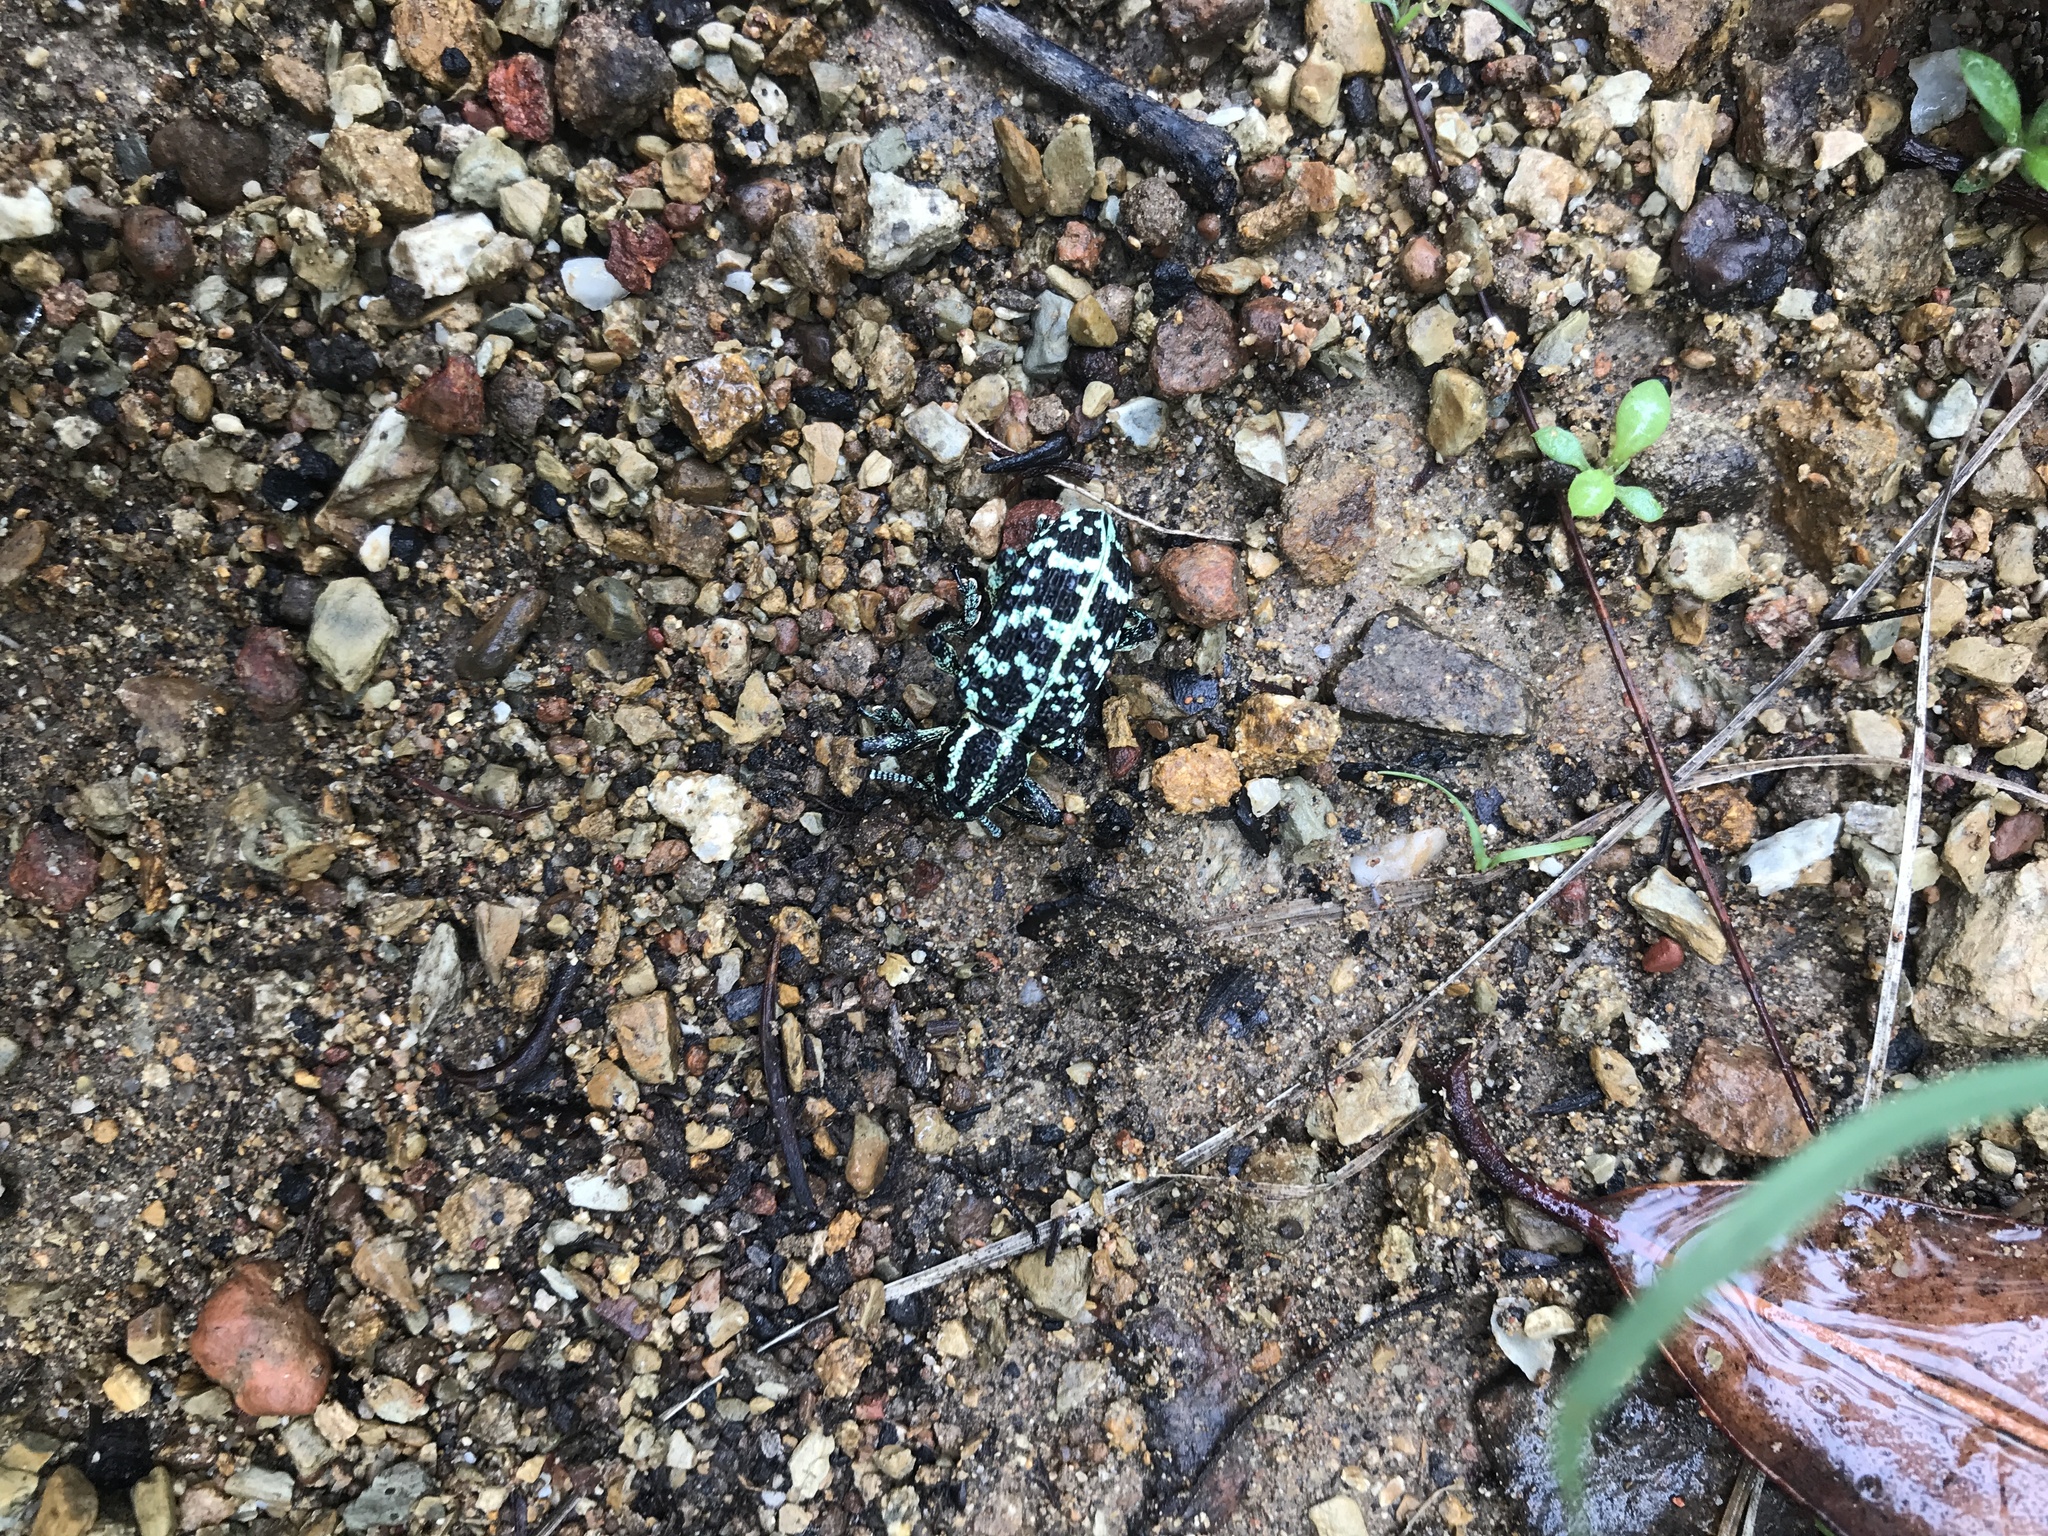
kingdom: Animalia
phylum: Arthropoda
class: Insecta
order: Coleoptera
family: Curculionidae
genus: Chrysolopus
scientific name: Chrysolopus spectabilis
